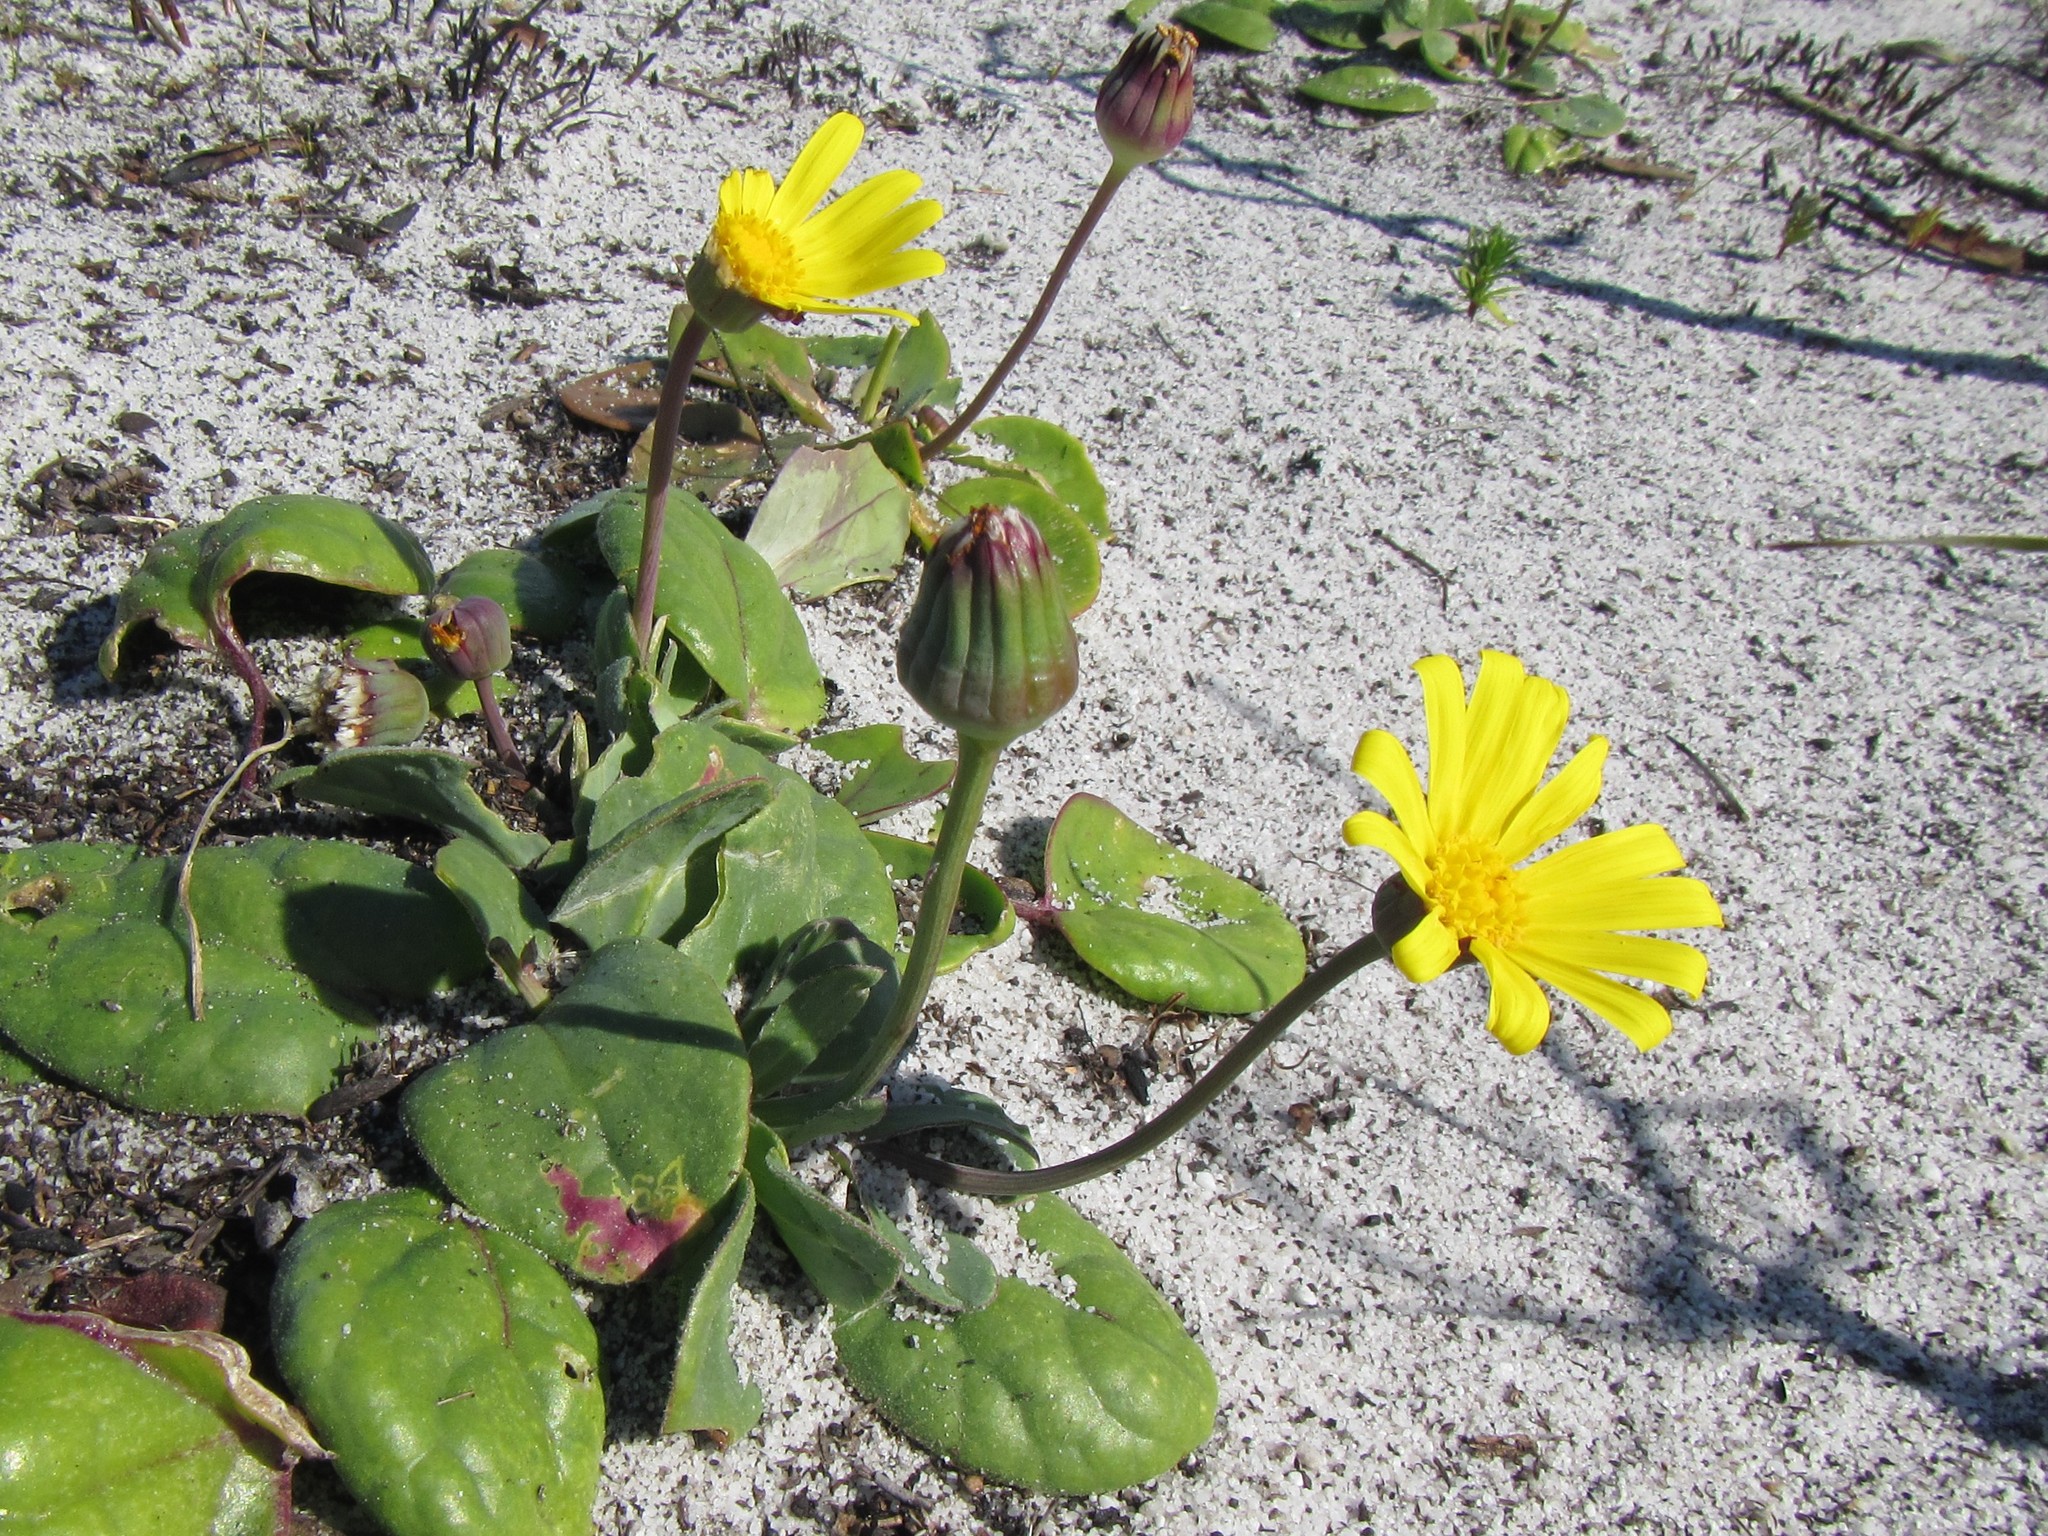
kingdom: Plantae
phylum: Tracheophyta
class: Magnoliopsida
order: Asterales
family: Asteraceae
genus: Othonna
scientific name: Othonna bulbosa
